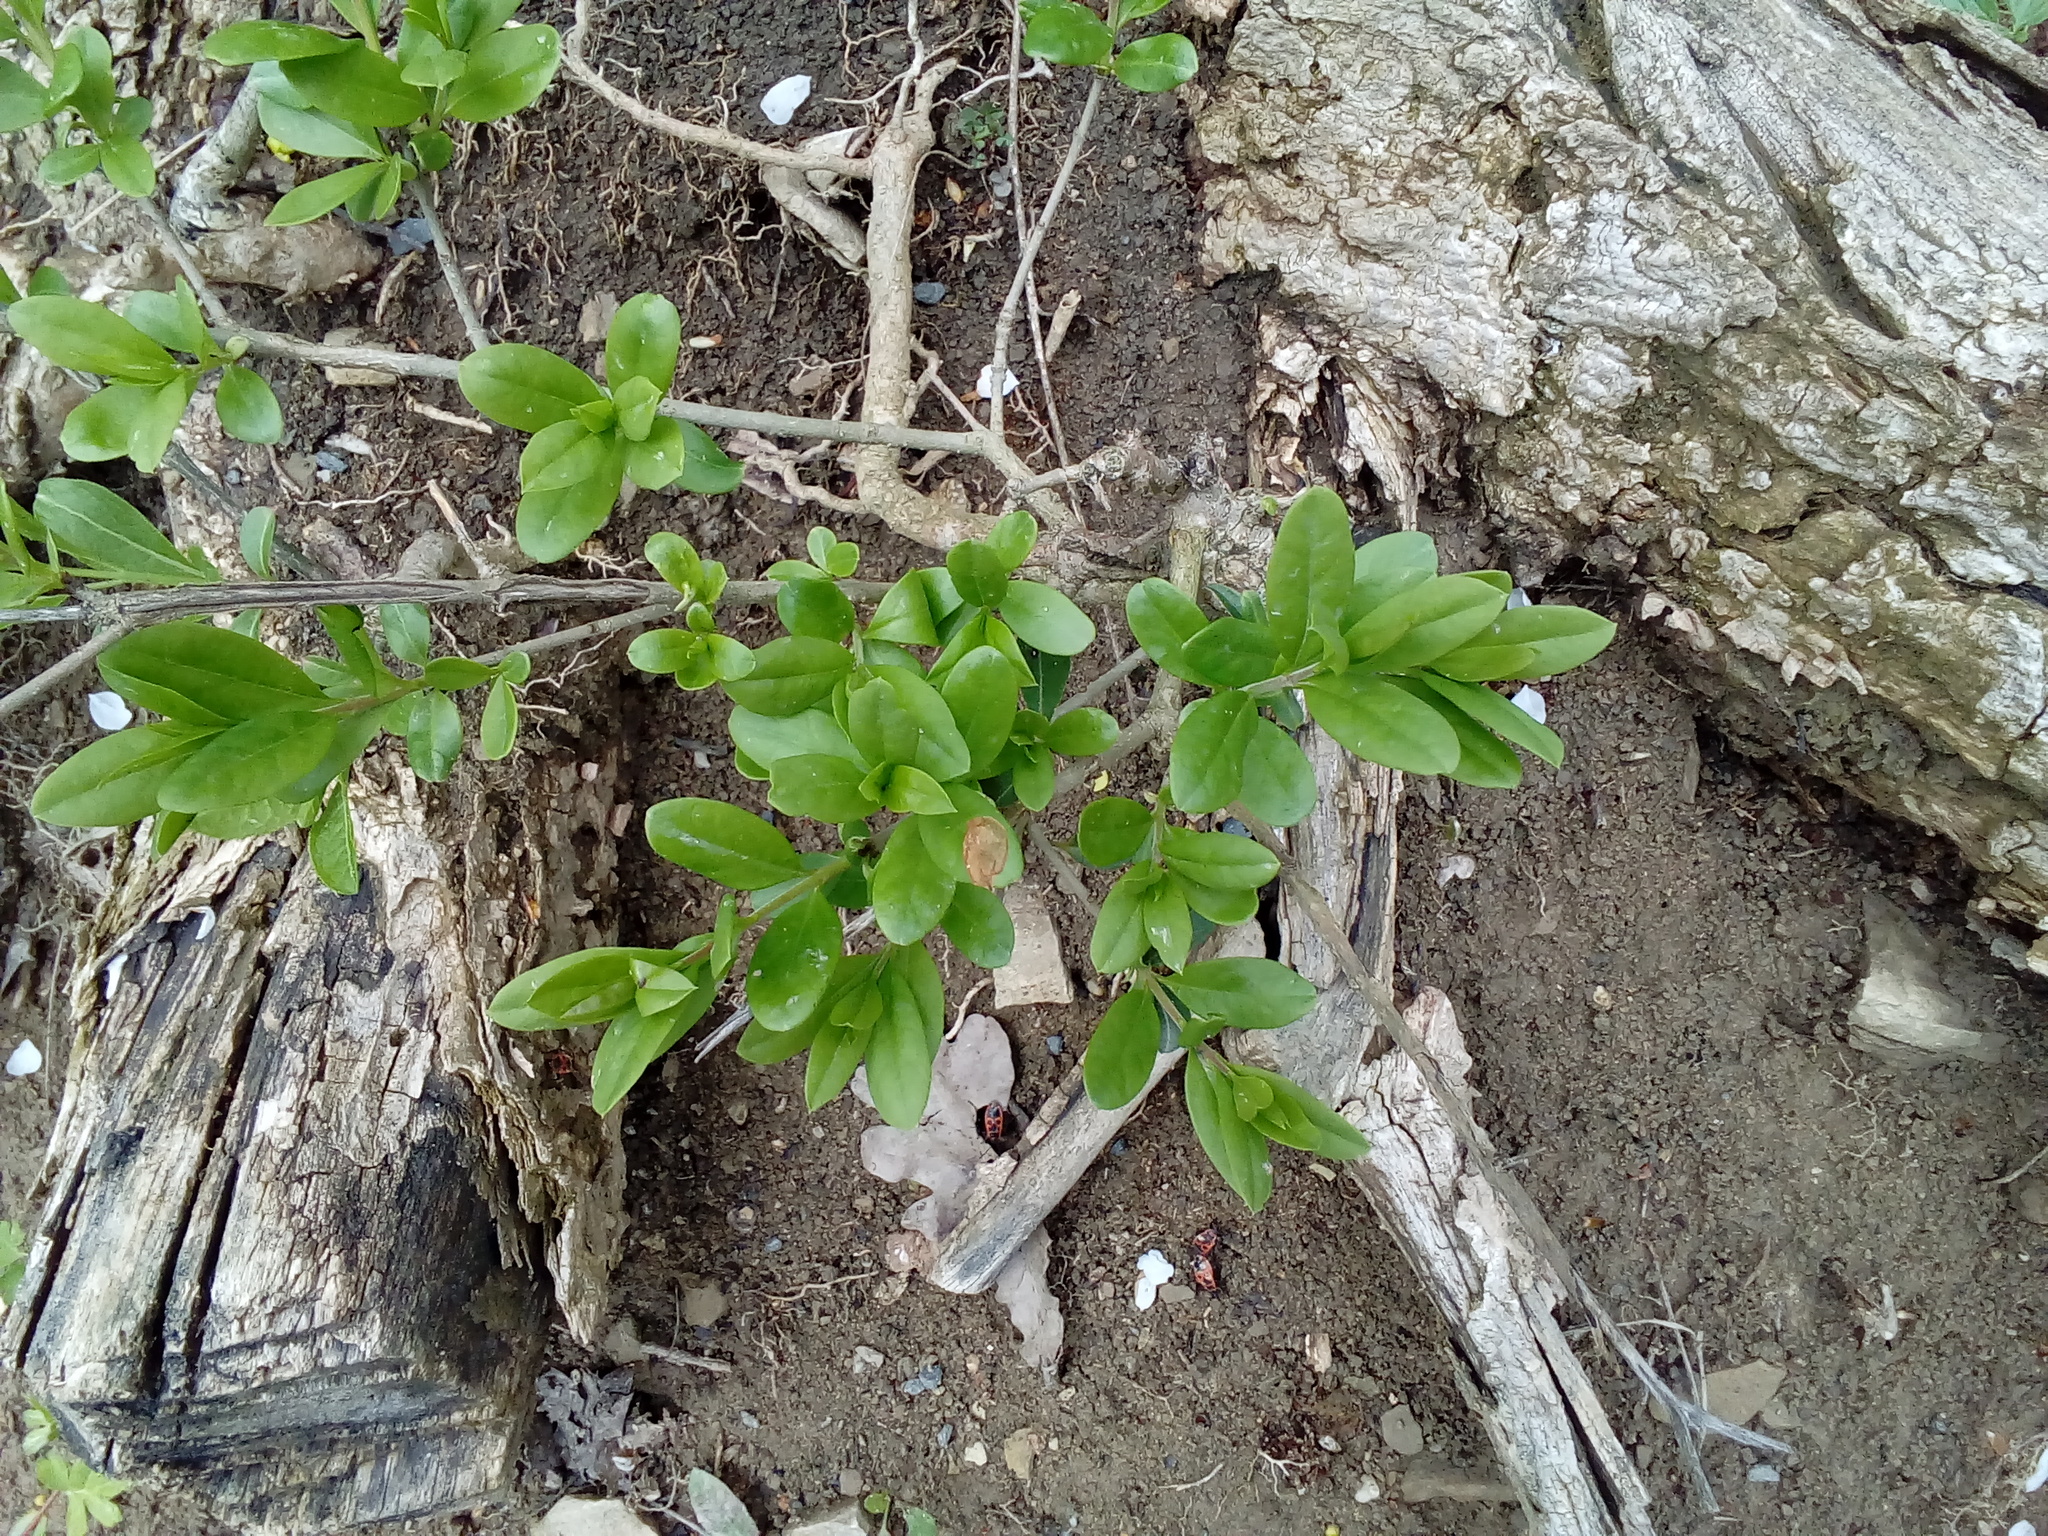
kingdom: Plantae
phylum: Tracheophyta
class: Magnoliopsida
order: Lamiales
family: Oleaceae
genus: Ligustrum
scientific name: Ligustrum vulgare
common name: Wild privet
